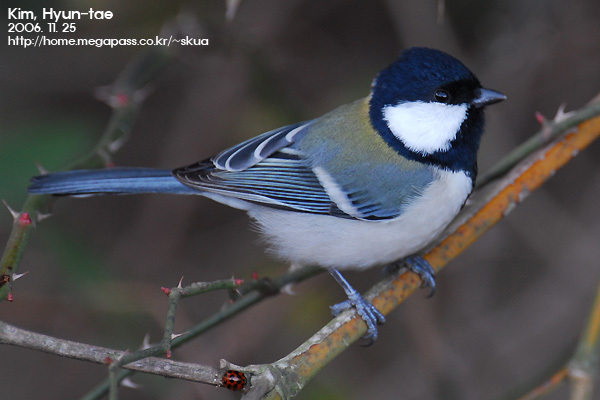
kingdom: Animalia
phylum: Chordata
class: Aves
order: Passeriformes
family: Paridae
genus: Parus
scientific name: Parus minor
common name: Japanese tit
